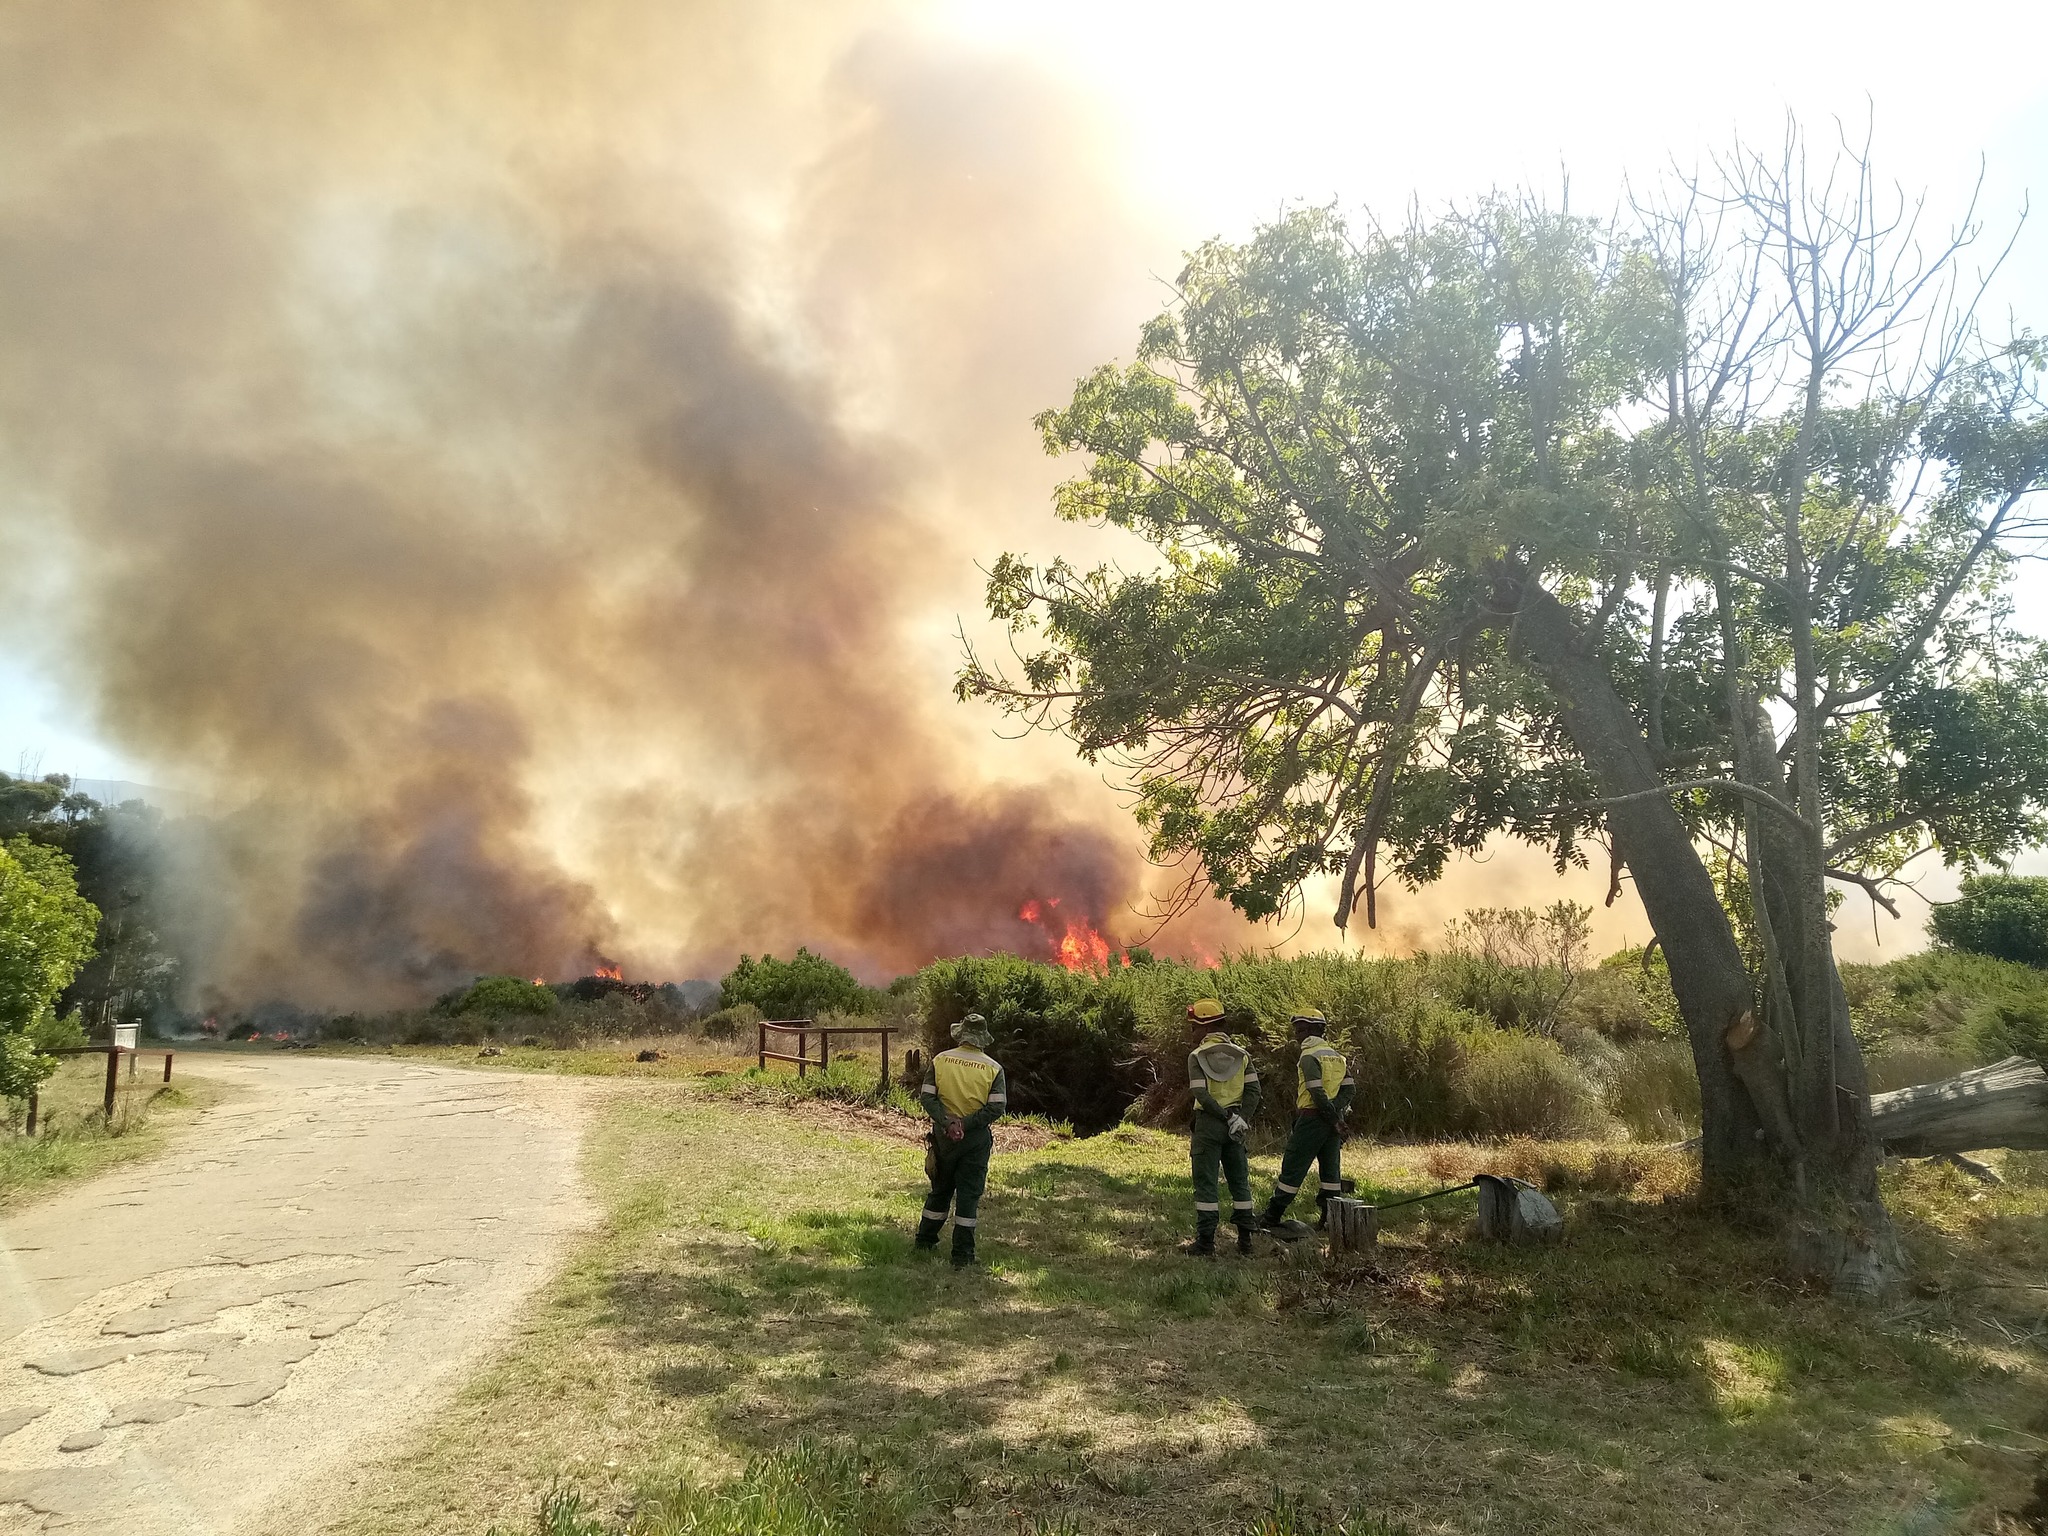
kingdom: Plantae
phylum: Tracheophyta
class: Magnoliopsida
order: Rosales
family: Rosaceae
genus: Cliffortia
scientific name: Cliffortia strobilifera
